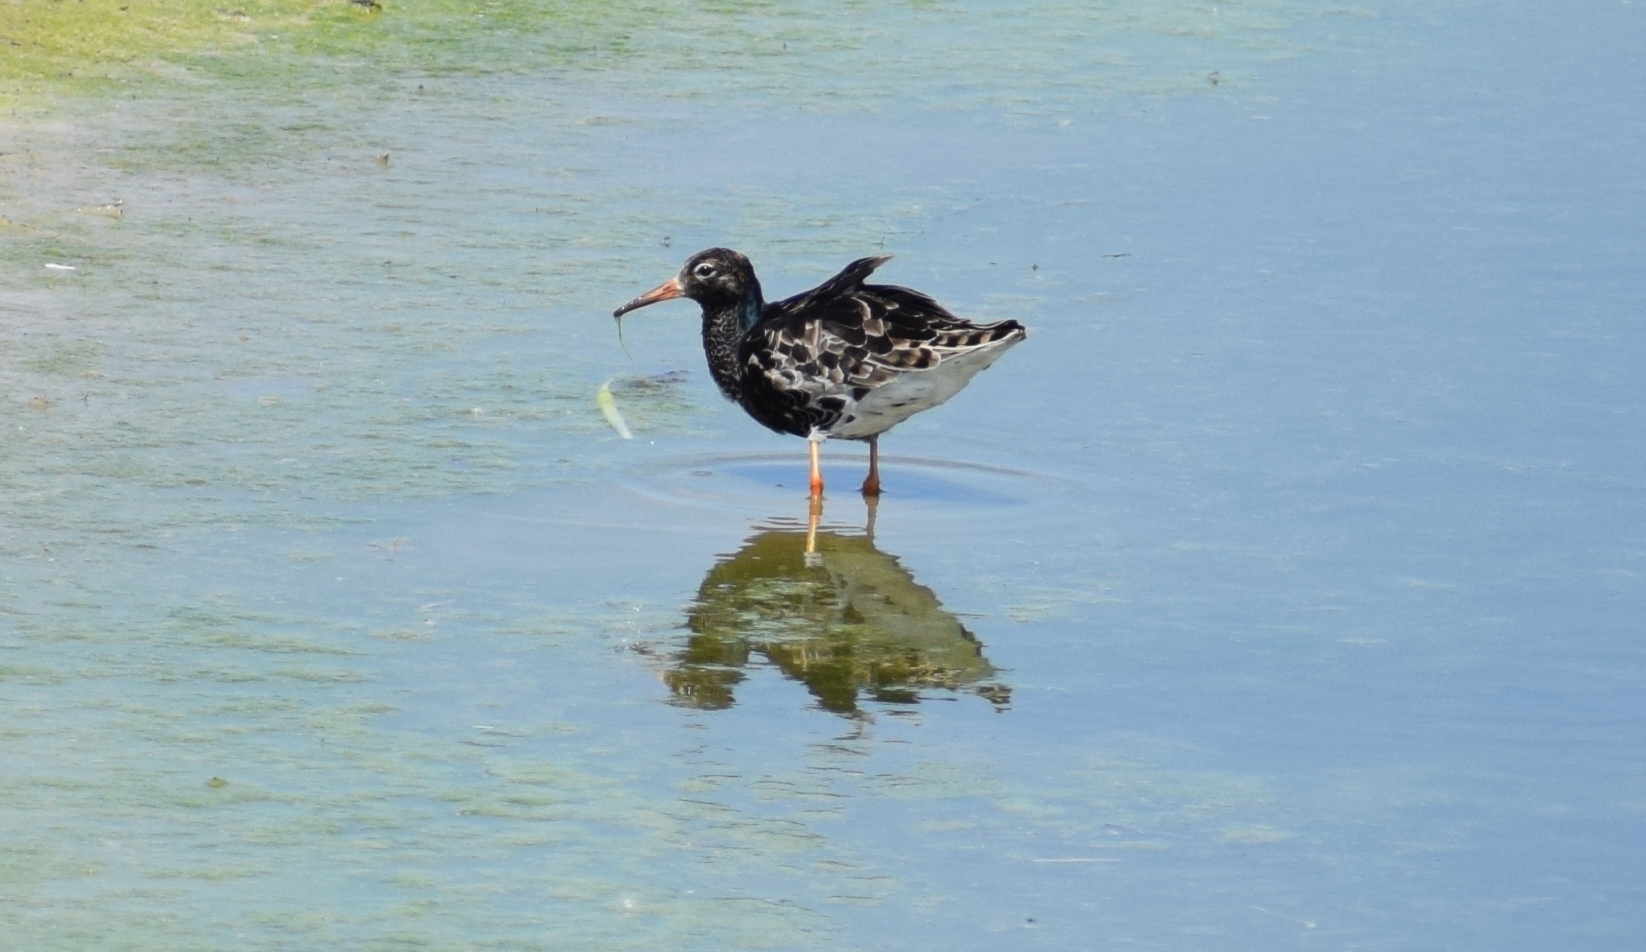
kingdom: Animalia
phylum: Chordata
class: Aves
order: Charadriiformes
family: Scolopacidae
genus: Calidris
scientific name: Calidris pugnax
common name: Ruff
